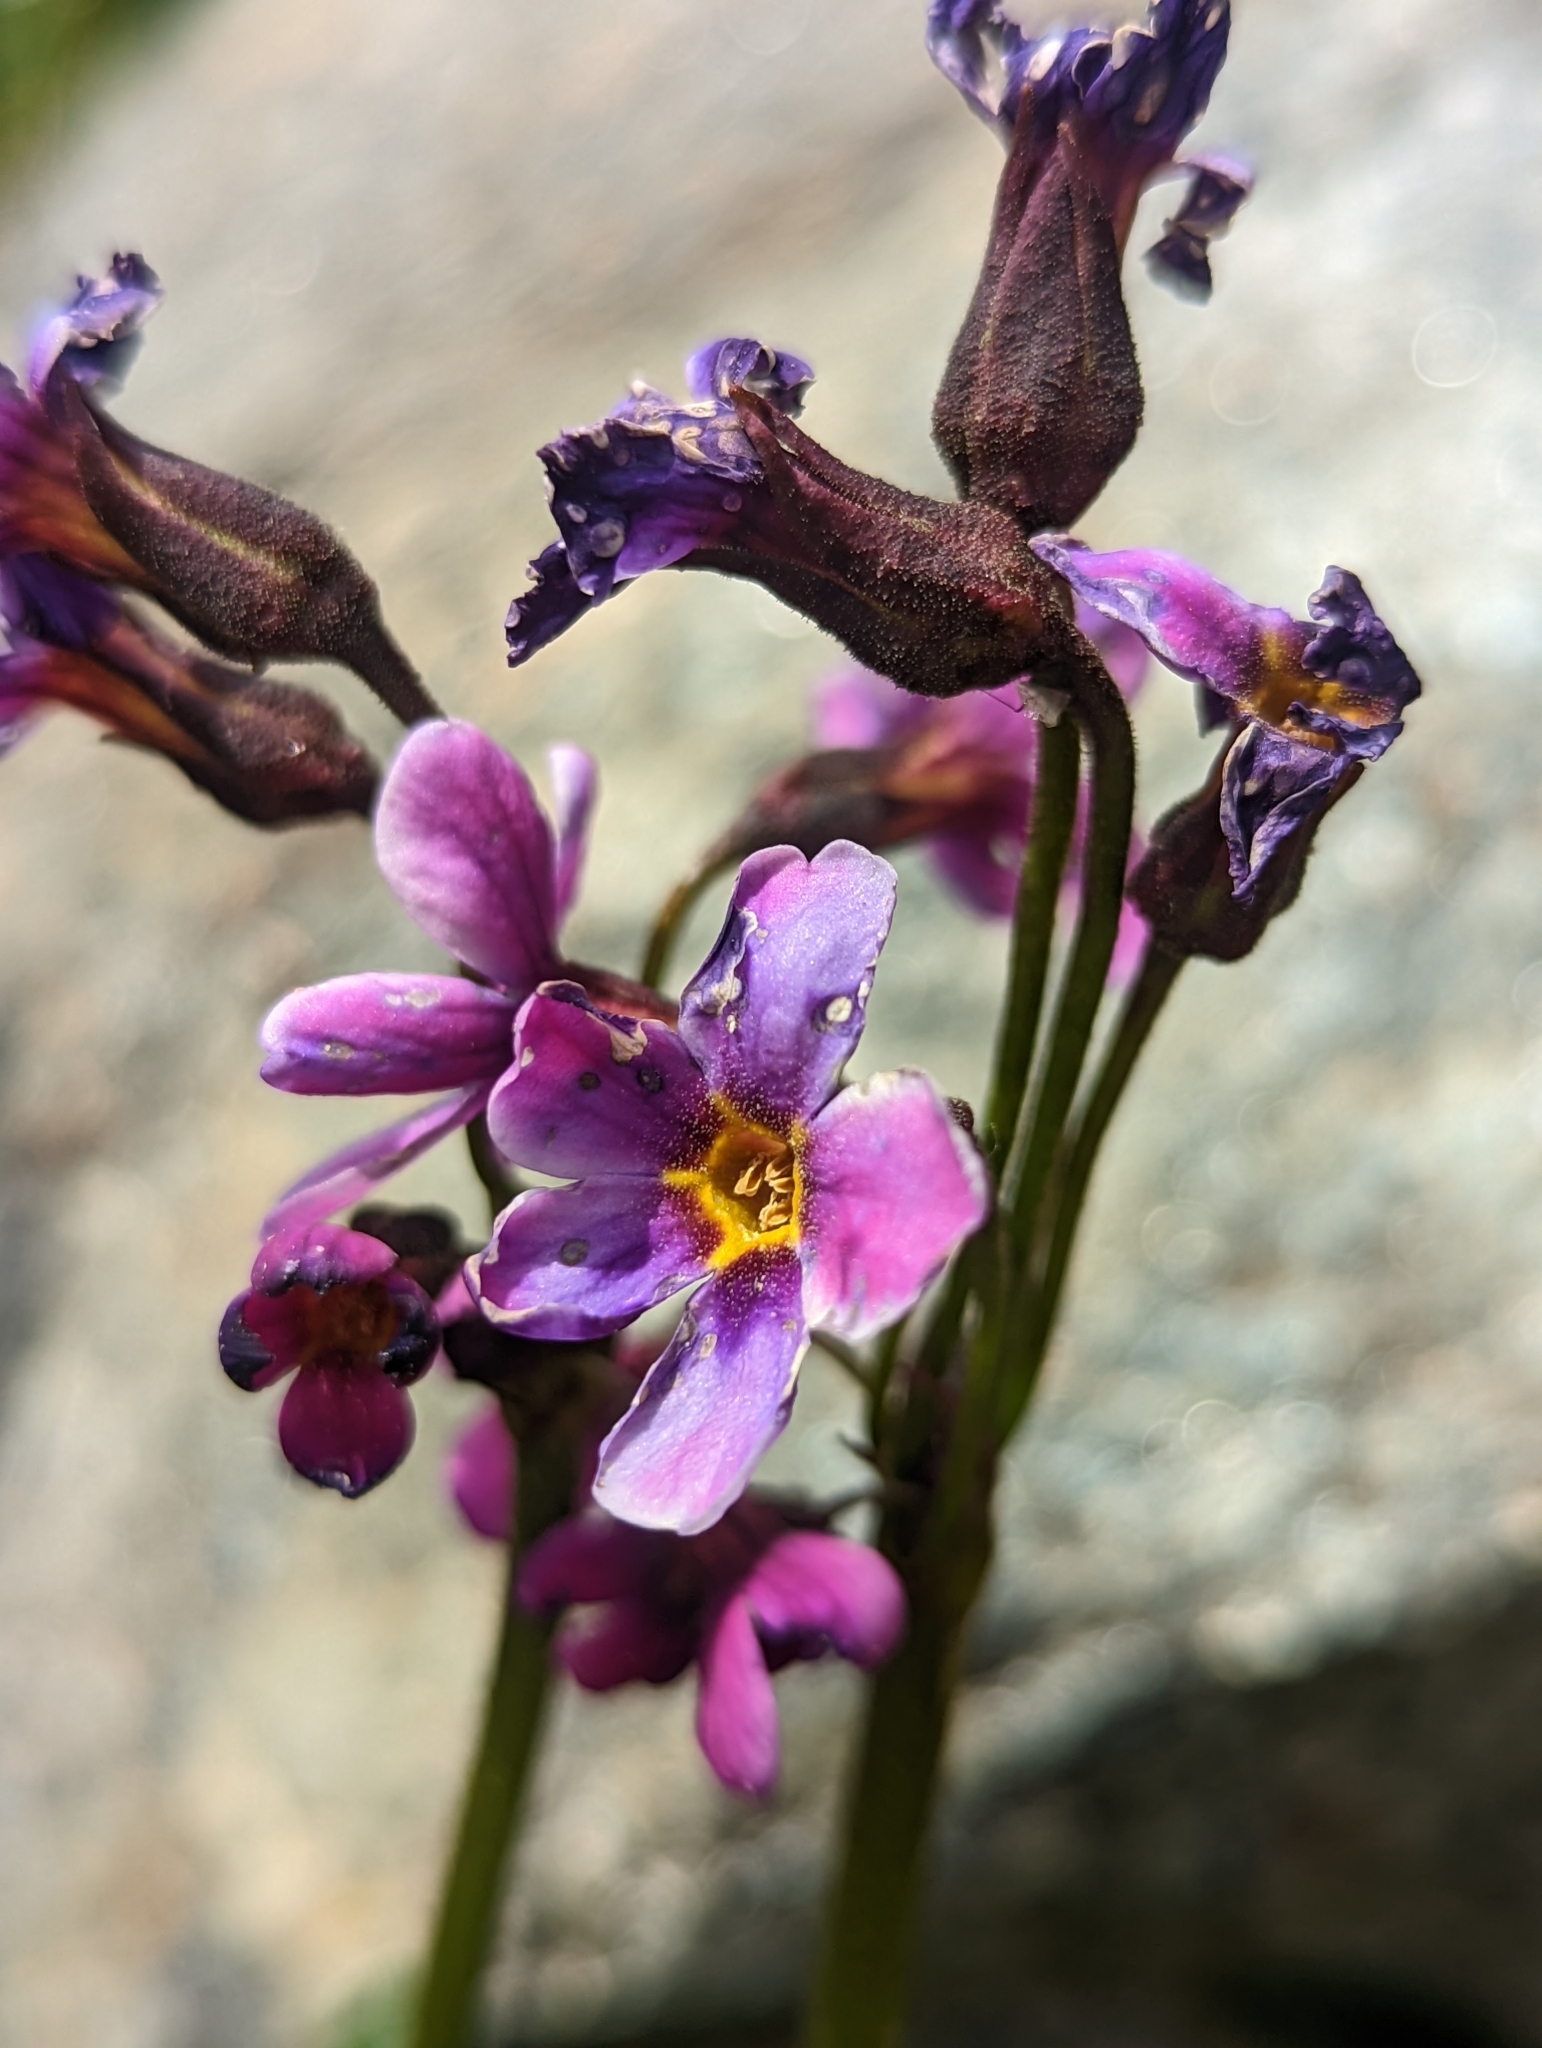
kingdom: Plantae
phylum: Tracheophyta
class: Magnoliopsida
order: Ericales
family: Primulaceae
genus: Primula
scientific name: Primula parryi
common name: Parry's primrose
